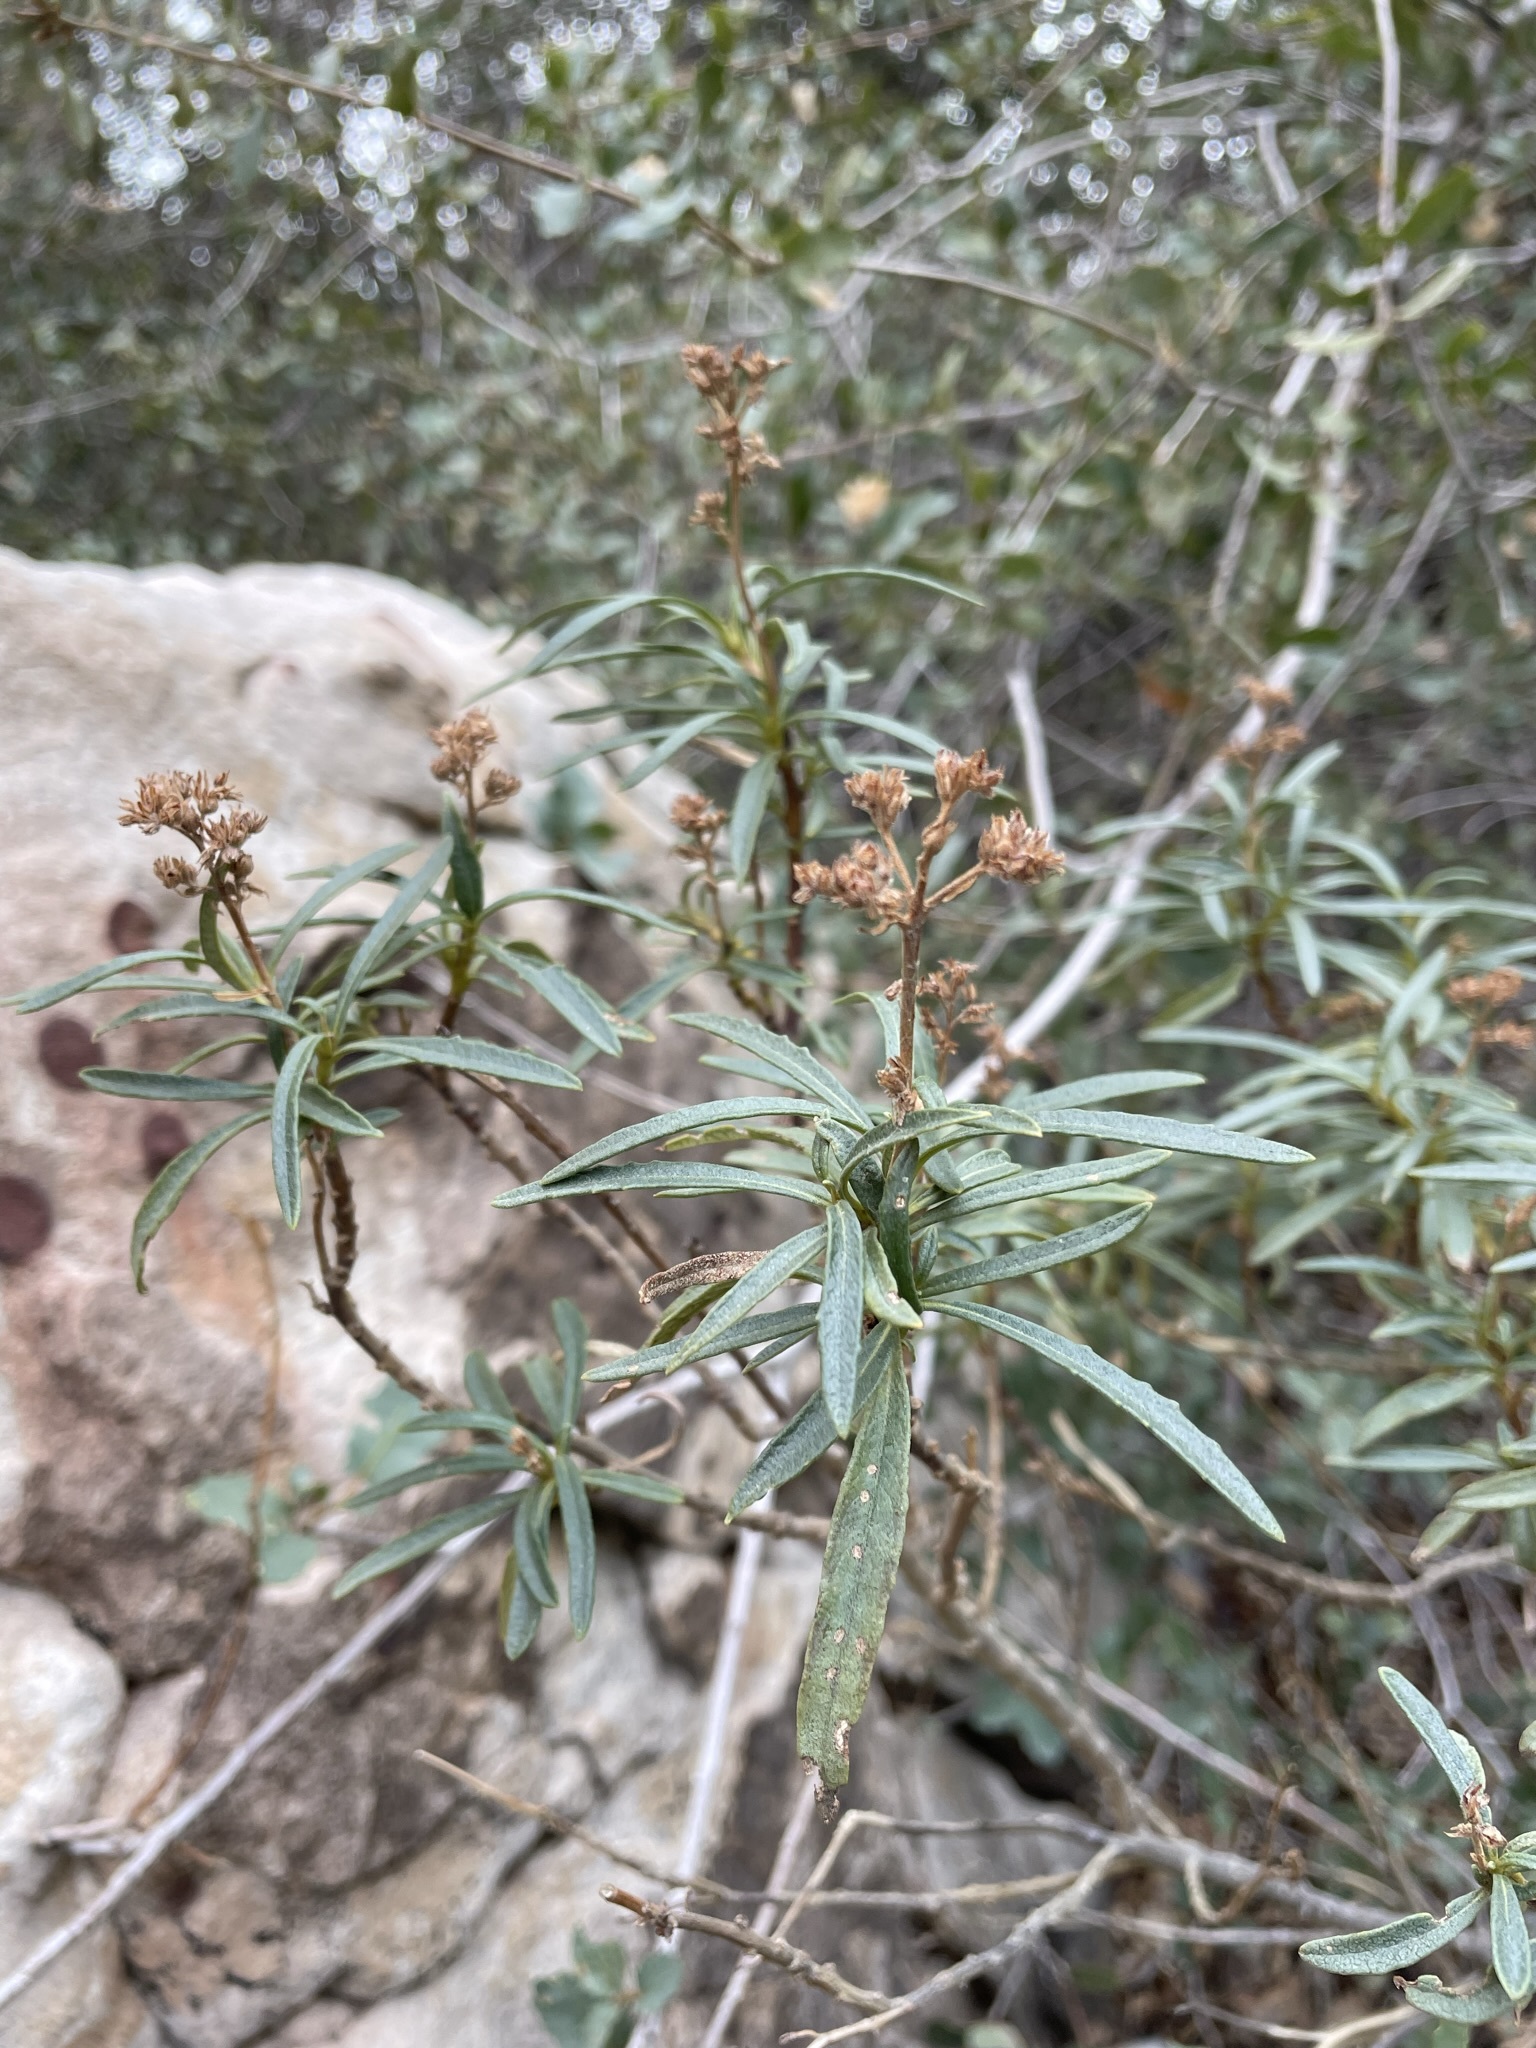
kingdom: Plantae
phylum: Tracheophyta
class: Magnoliopsida
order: Boraginales
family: Namaceae
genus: Eriodictyon
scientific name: Eriodictyon angustifolium
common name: Narrow-leaf yerba santa
